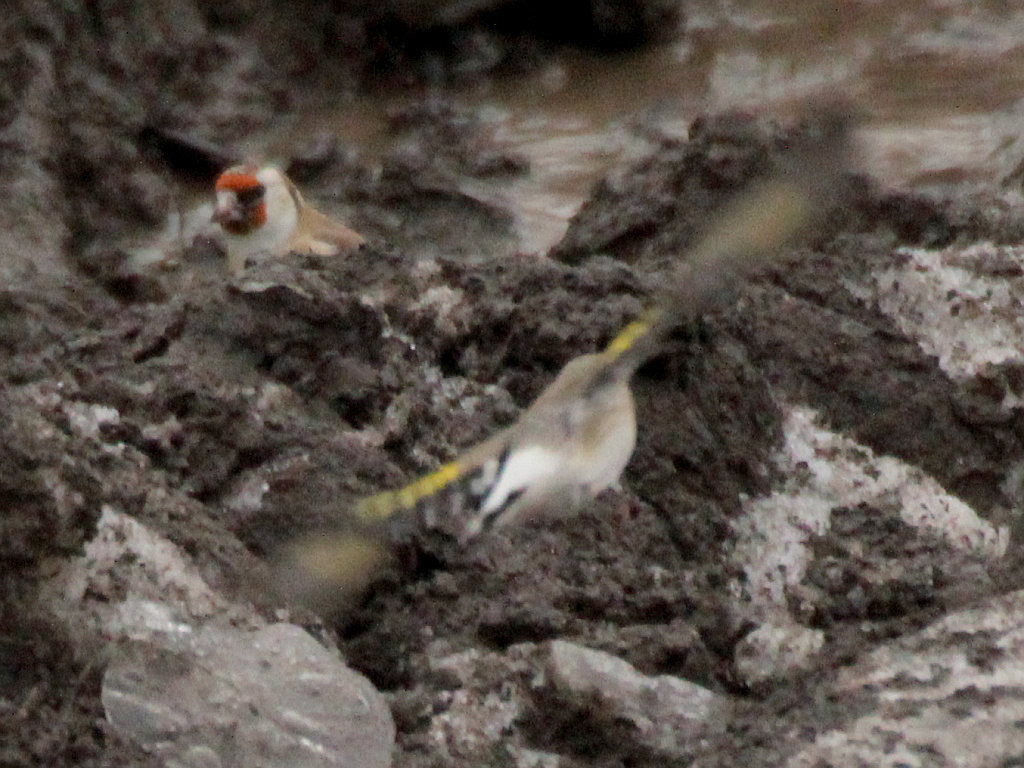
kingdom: Animalia
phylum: Chordata
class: Aves
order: Passeriformes
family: Fringillidae
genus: Carduelis
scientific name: Carduelis carduelis
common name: European goldfinch
